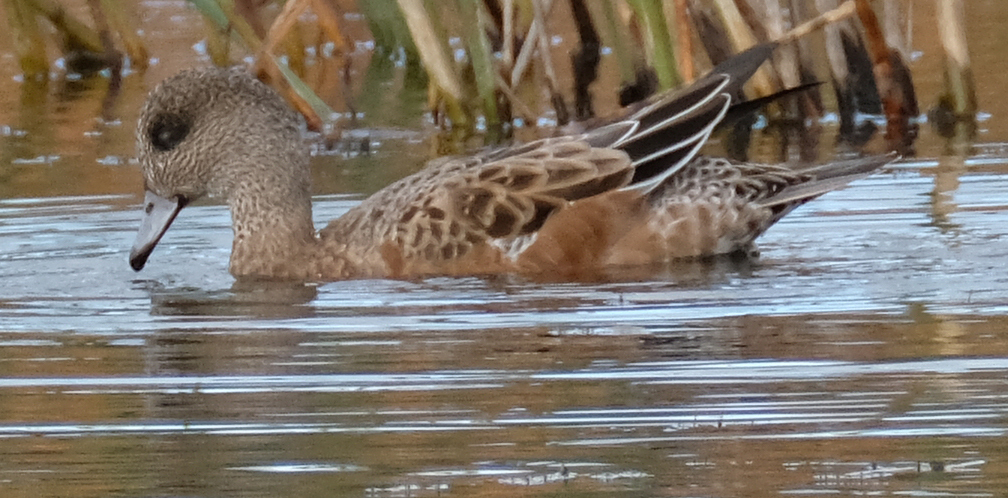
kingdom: Animalia
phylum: Chordata
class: Aves
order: Anseriformes
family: Anatidae
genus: Mareca
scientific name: Mareca americana
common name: American wigeon
